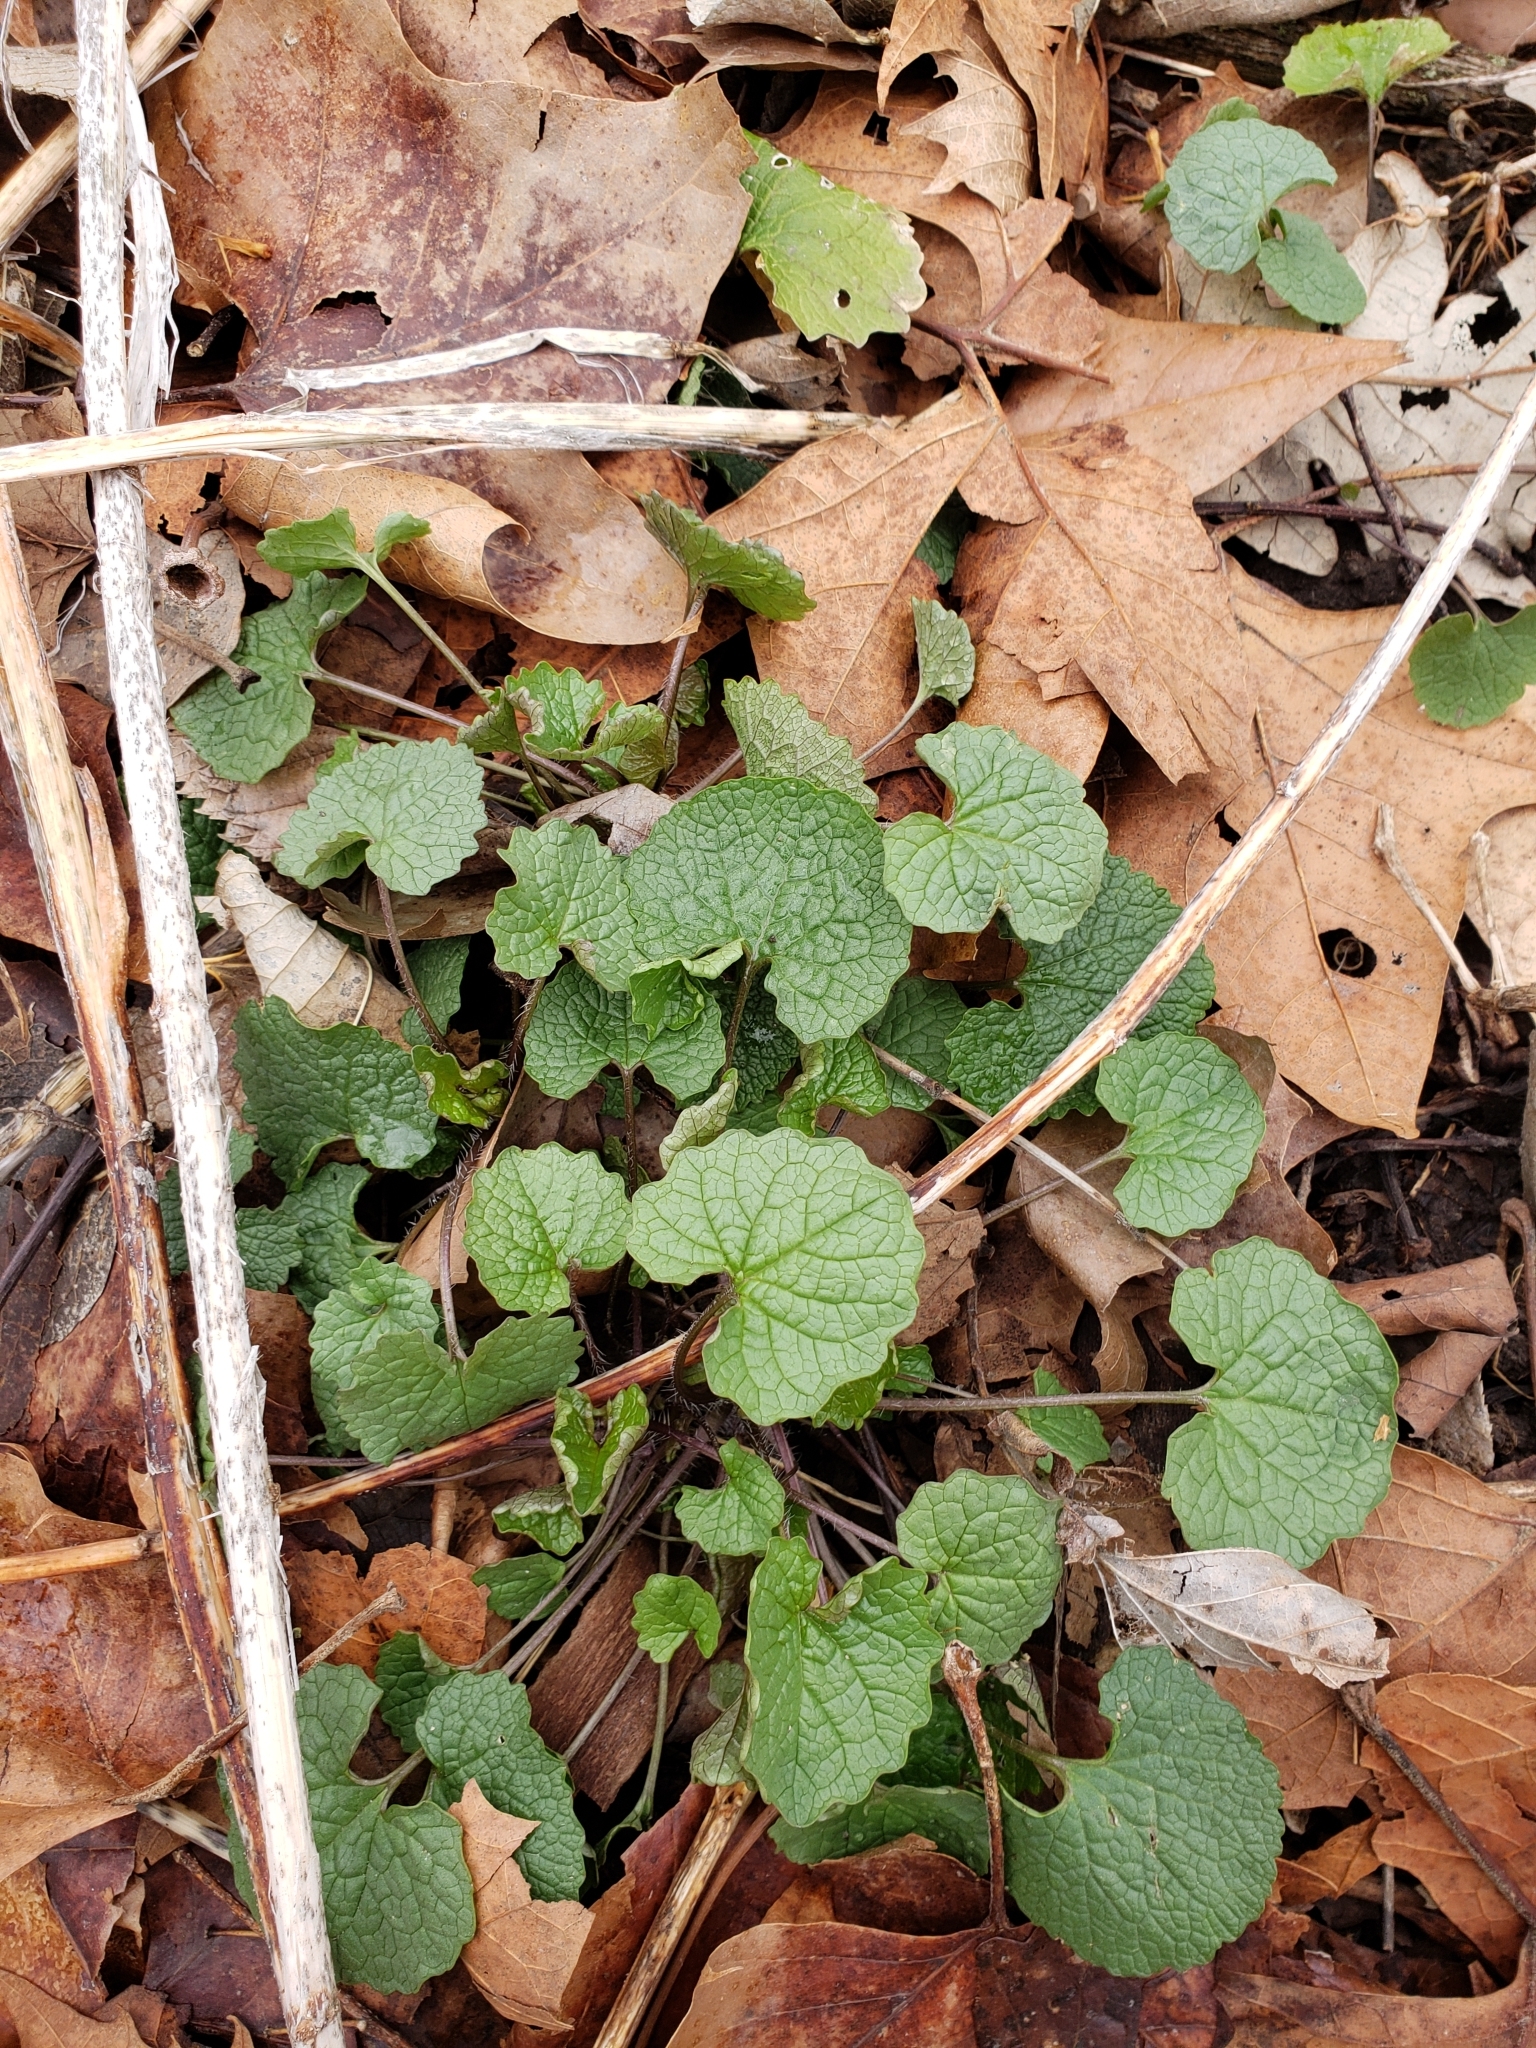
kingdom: Plantae
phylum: Tracheophyta
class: Magnoliopsida
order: Brassicales
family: Brassicaceae
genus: Alliaria
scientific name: Alliaria petiolata
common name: Garlic mustard
